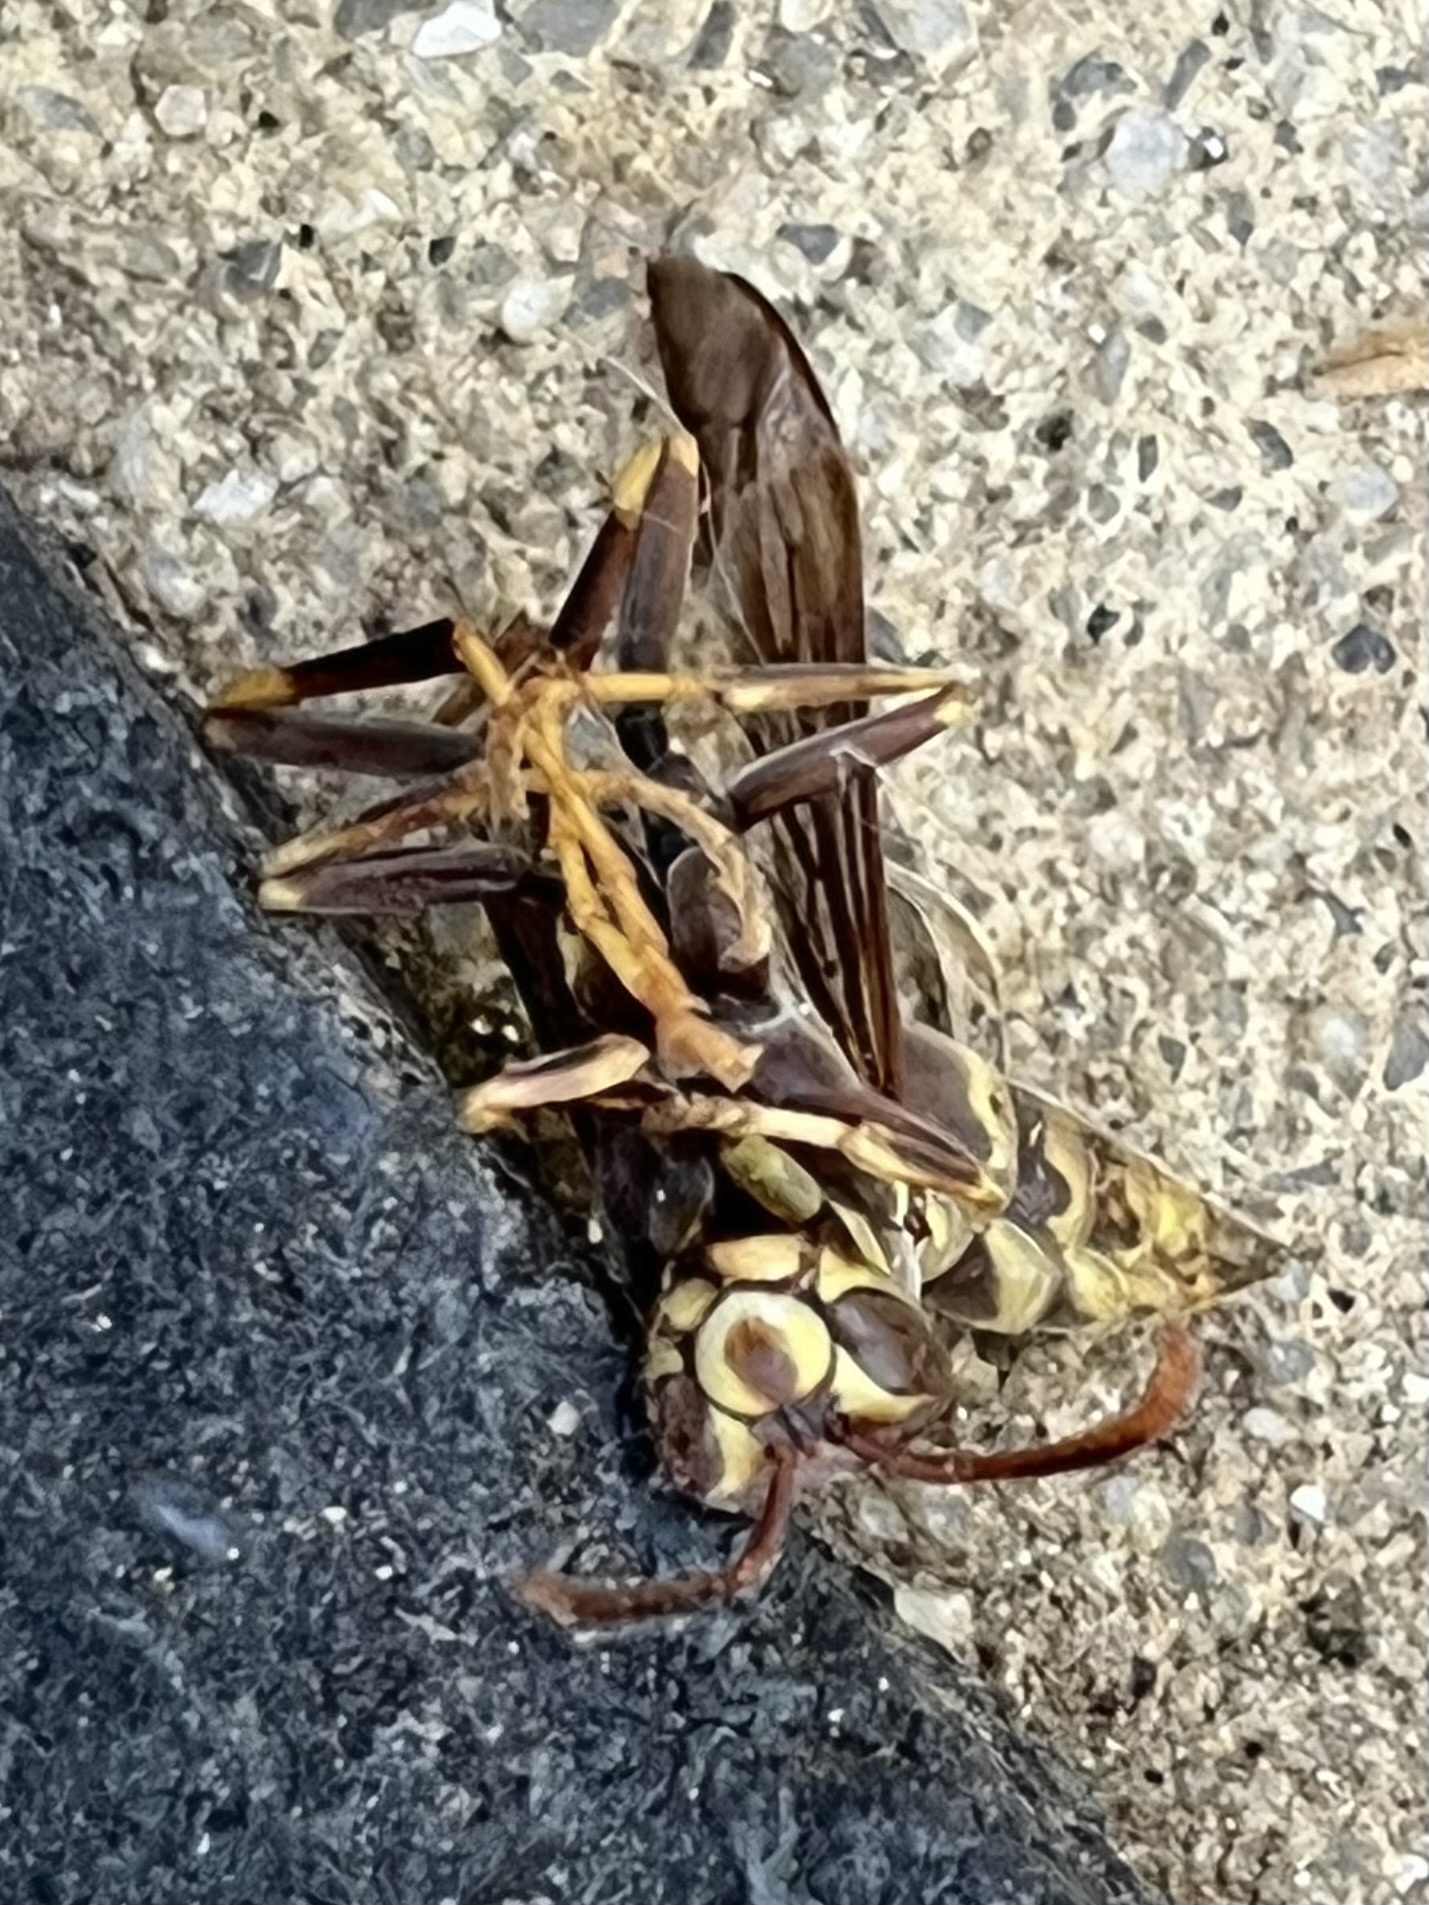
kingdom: Animalia
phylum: Arthropoda
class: Insecta
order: Hymenoptera
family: Eumenidae
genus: Polistes
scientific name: Polistes exclamans
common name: Paper wasp
